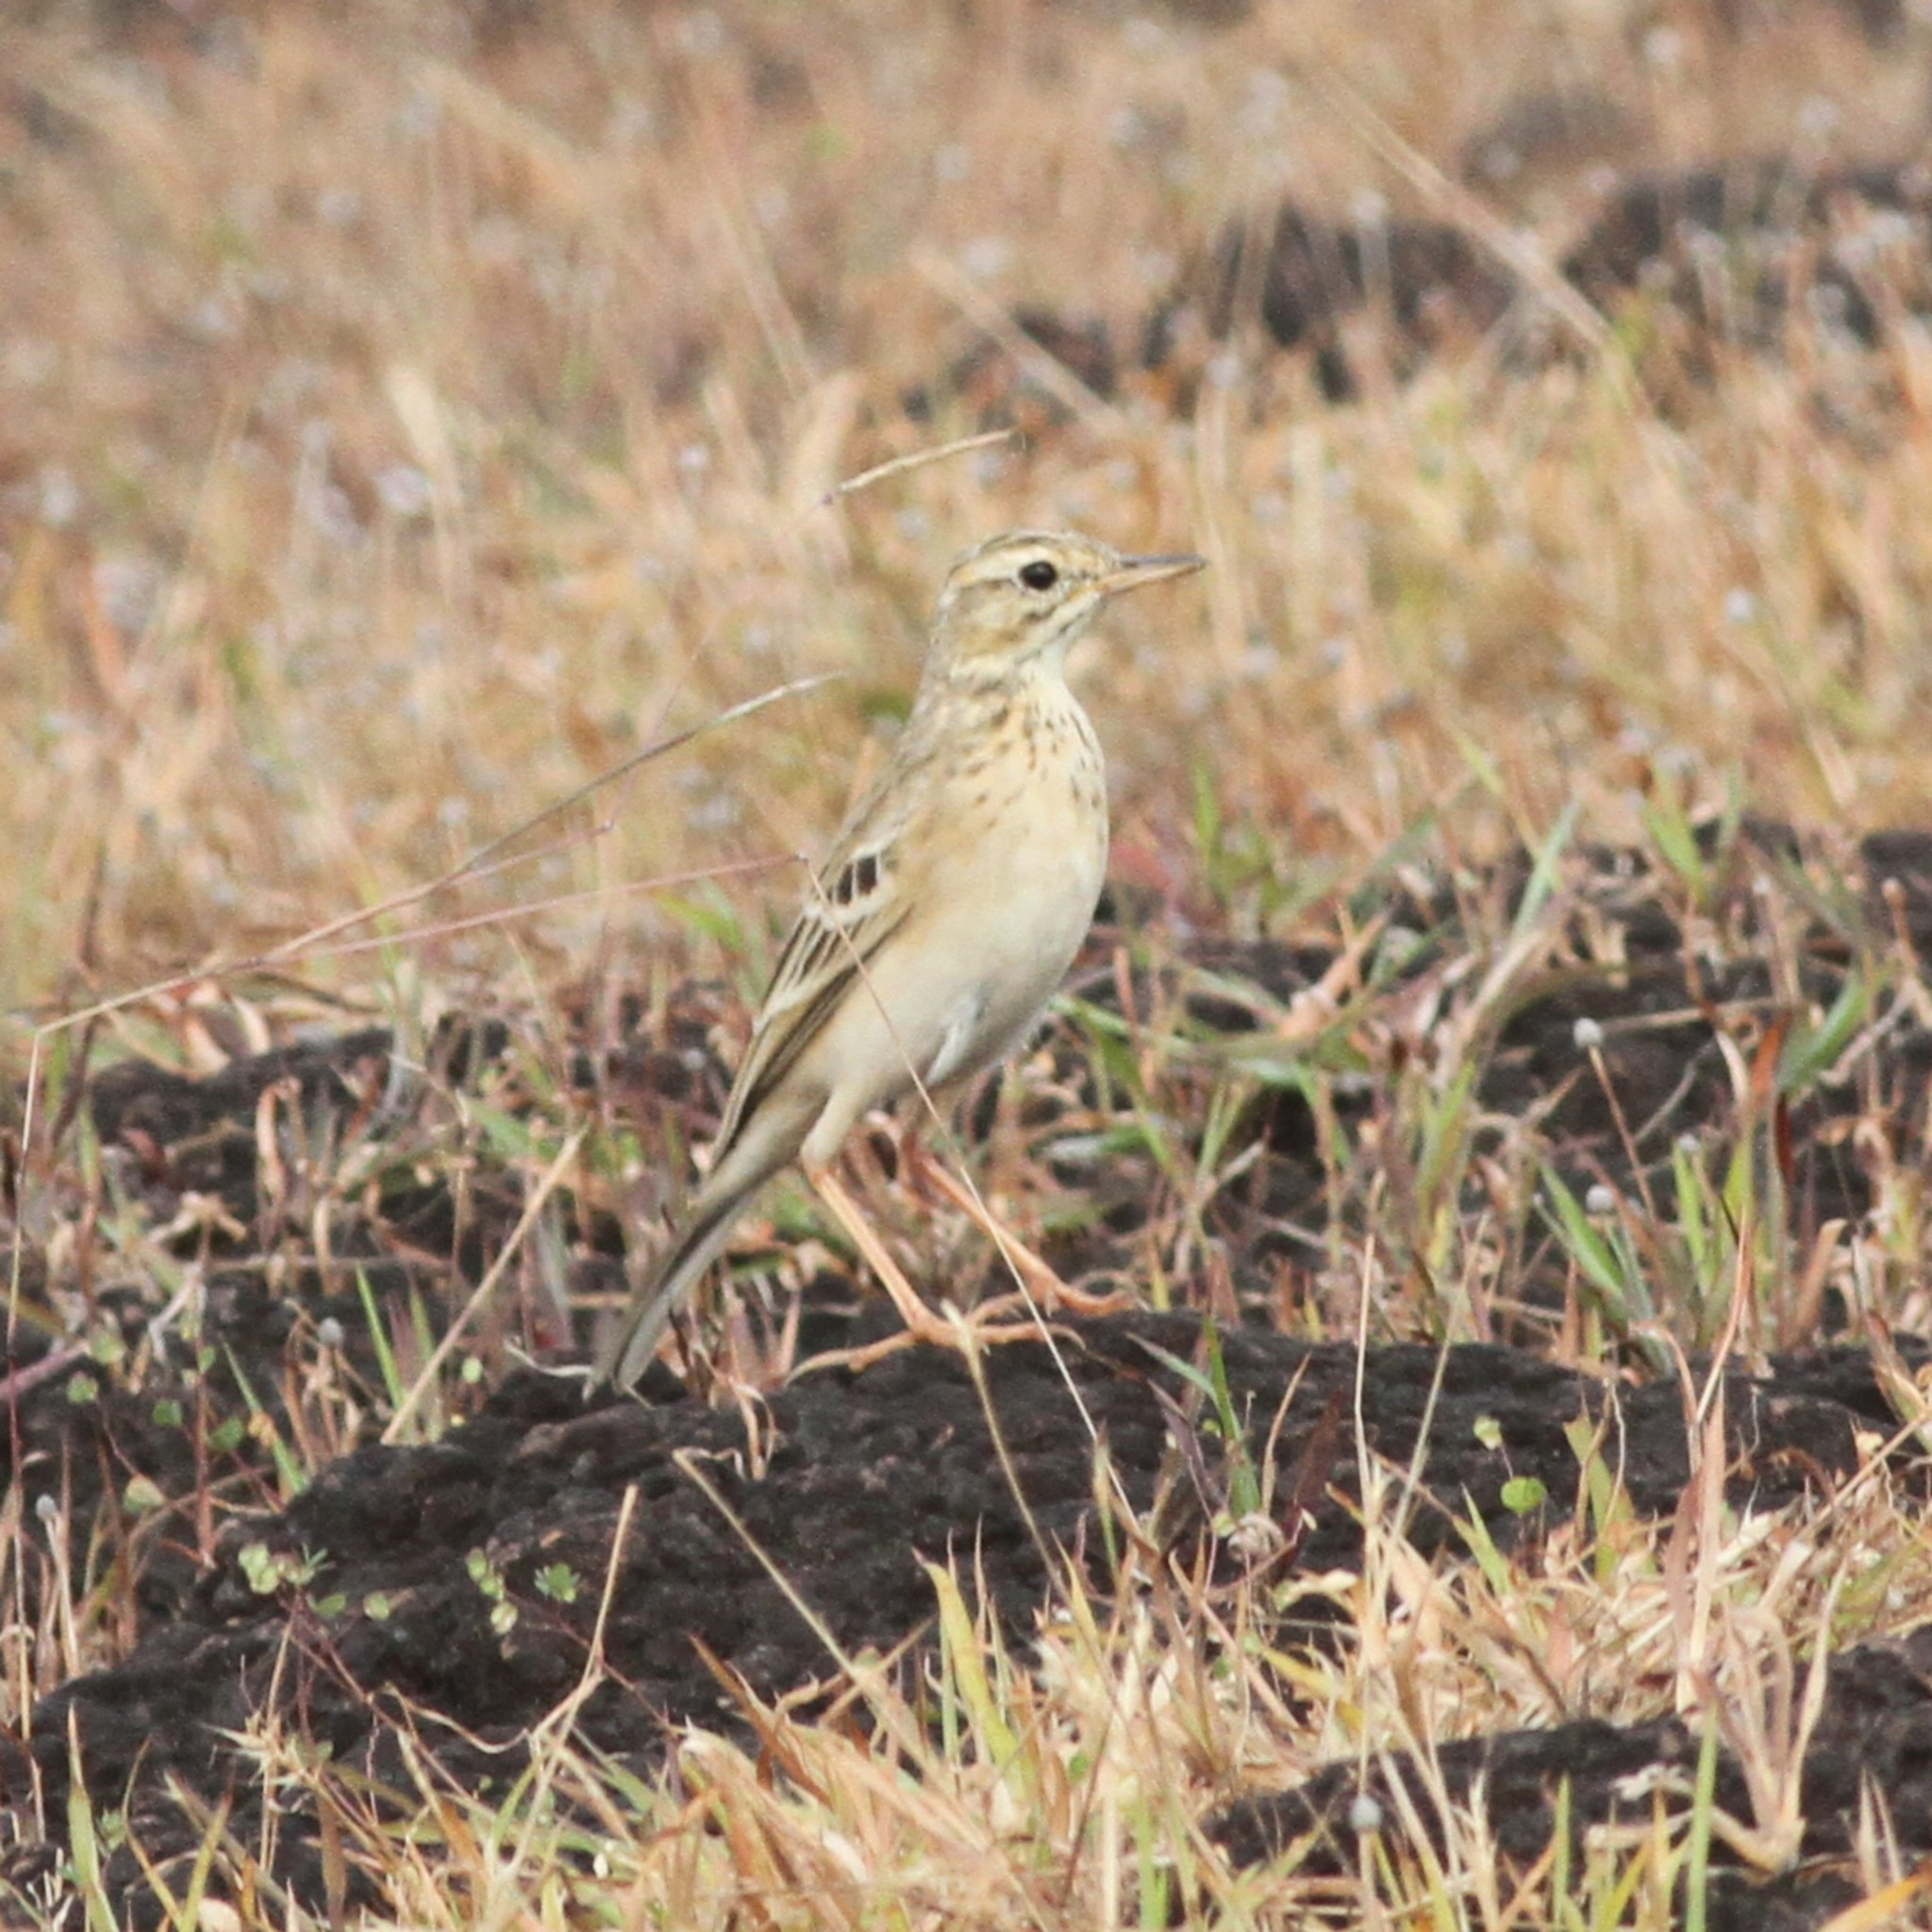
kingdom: Animalia
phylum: Chordata
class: Aves
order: Passeriformes
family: Motacillidae
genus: Anthus
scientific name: Anthus rufulus
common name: Paddyfield pipit
